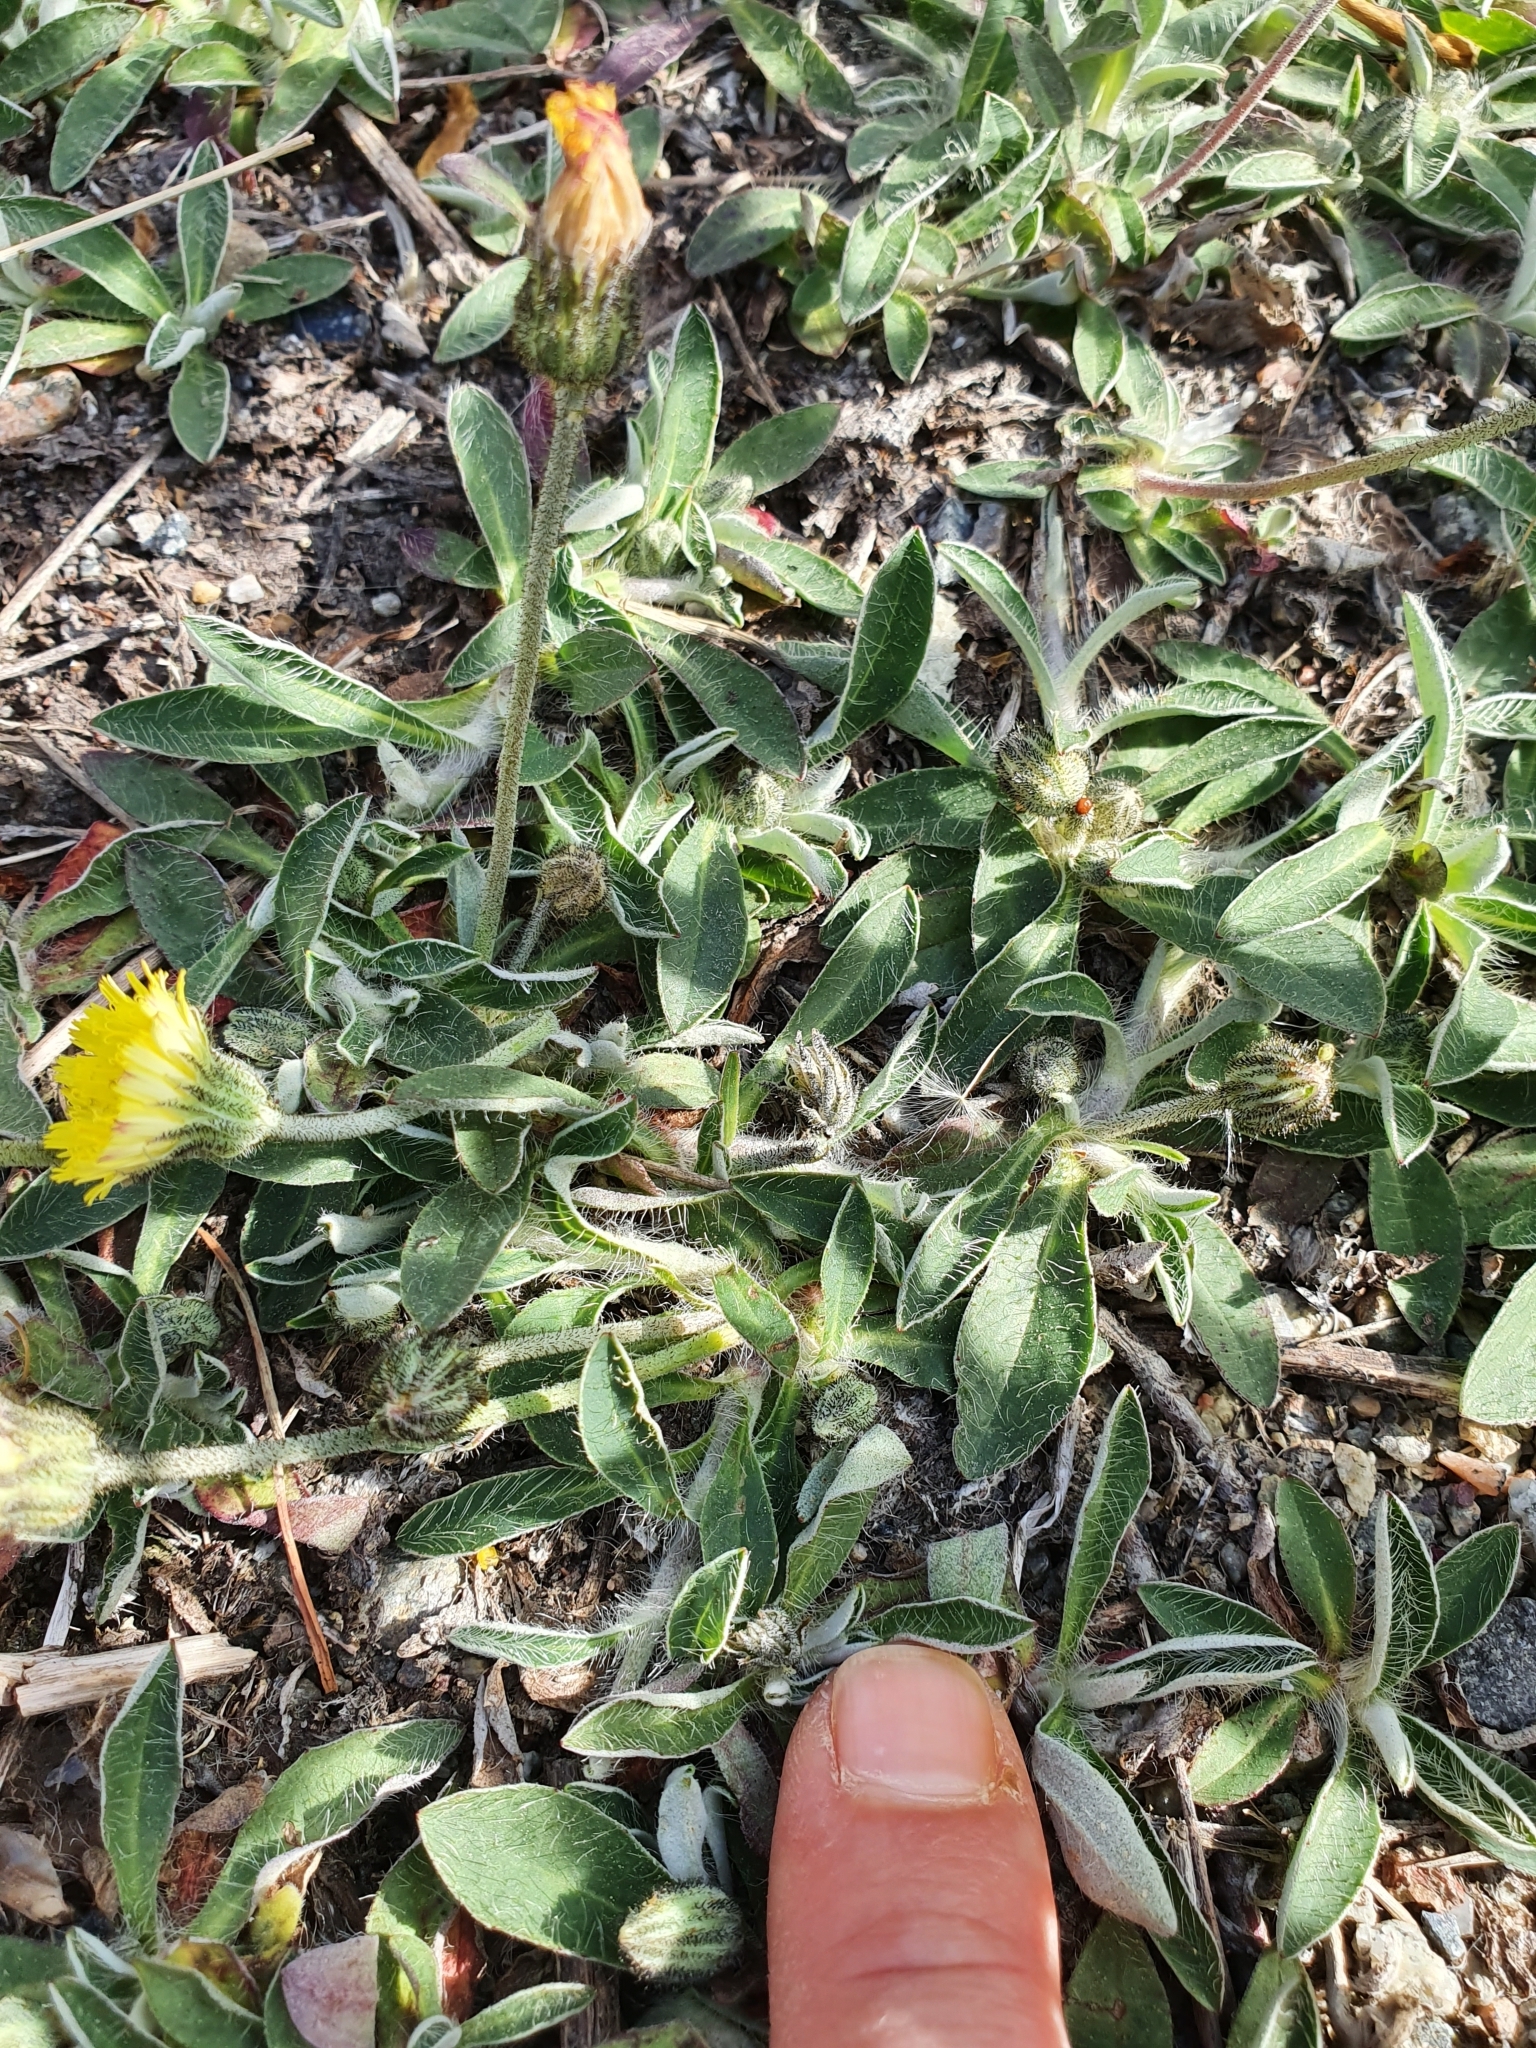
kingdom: Plantae
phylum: Tracheophyta
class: Magnoliopsida
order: Asterales
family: Asteraceae
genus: Pilosella
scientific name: Pilosella officinarum
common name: Mouse-ear hawkweed
